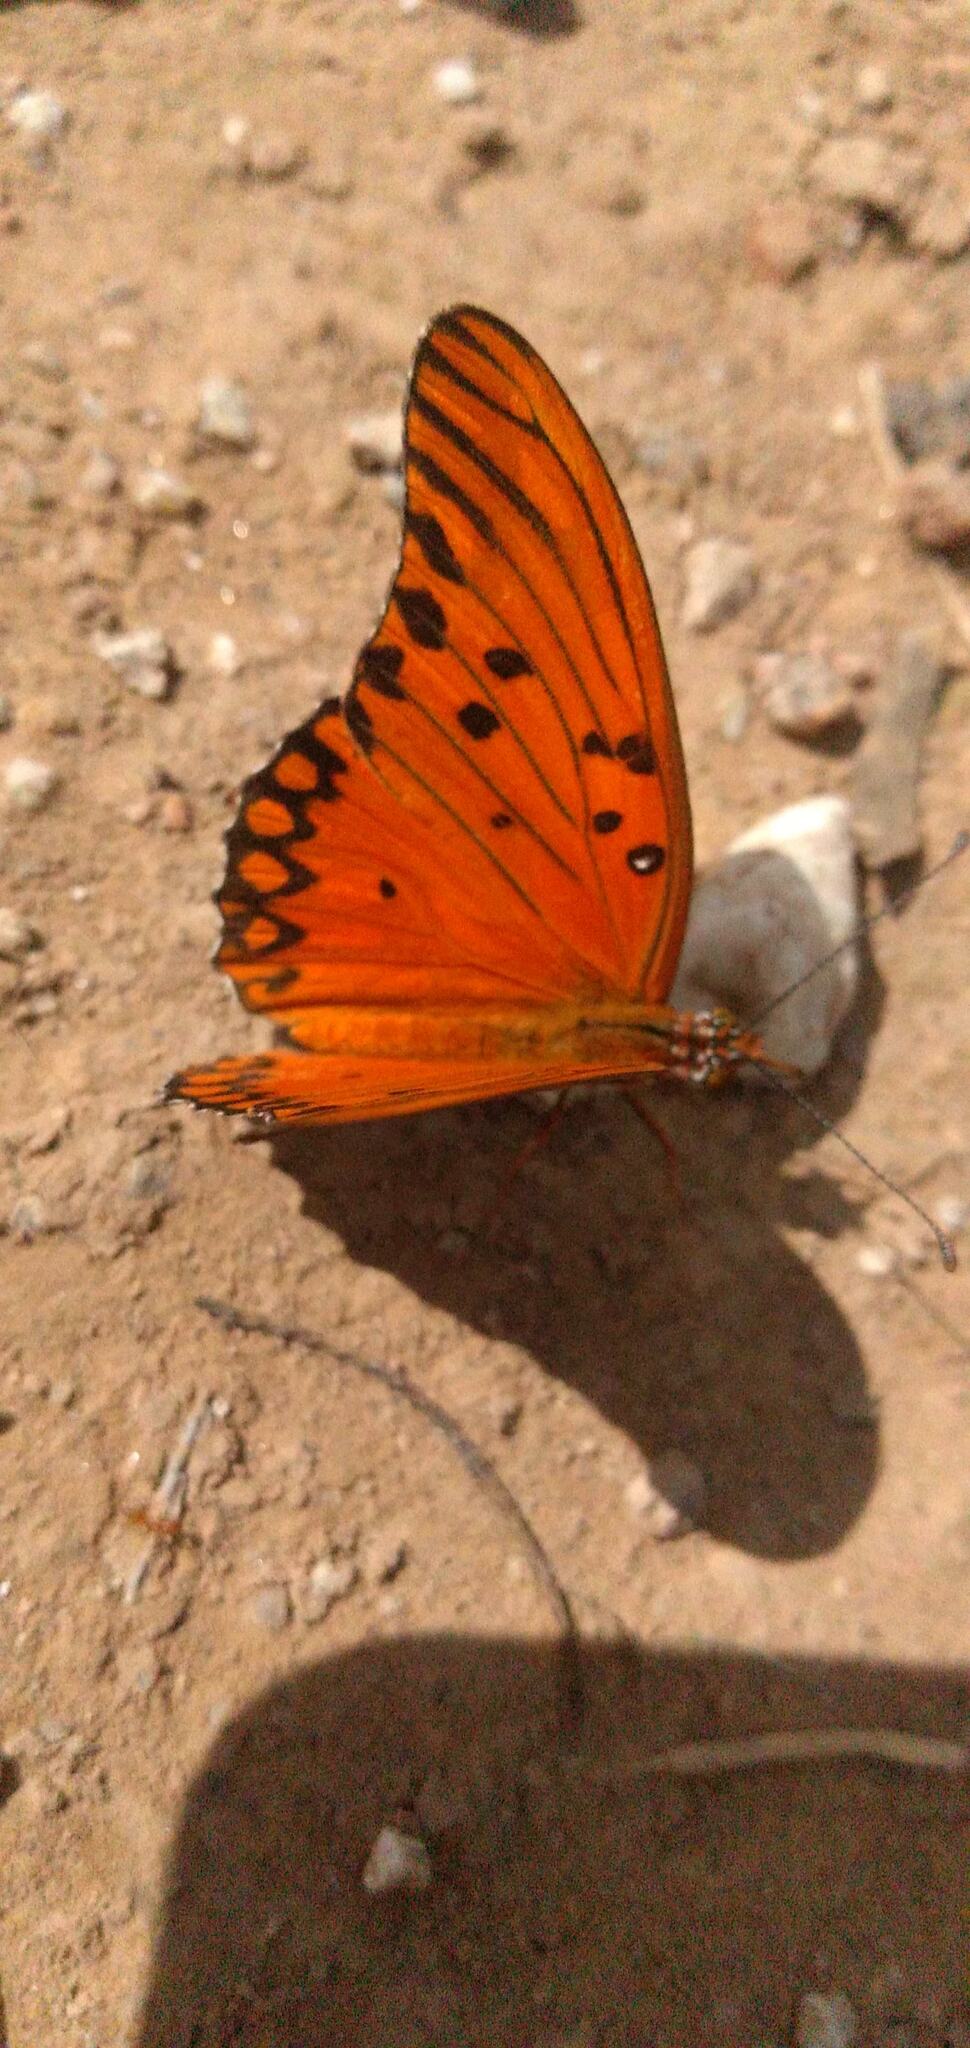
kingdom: Animalia
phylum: Arthropoda
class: Insecta
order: Lepidoptera
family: Nymphalidae
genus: Dione
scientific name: Dione vanillae
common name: Gulf fritillary
